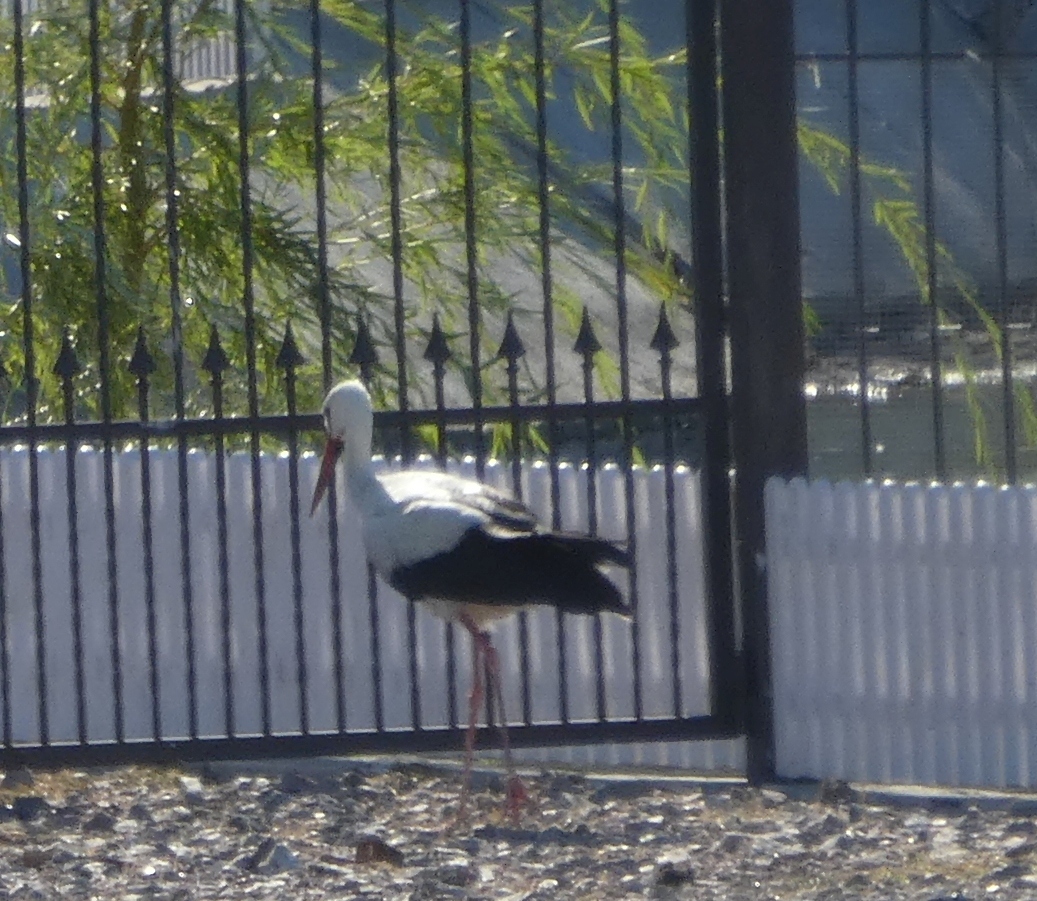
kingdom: Animalia
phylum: Chordata
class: Aves
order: Ciconiiformes
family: Ciconiidae
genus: Ciconia
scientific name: Ciconia ciconia
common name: White stork
